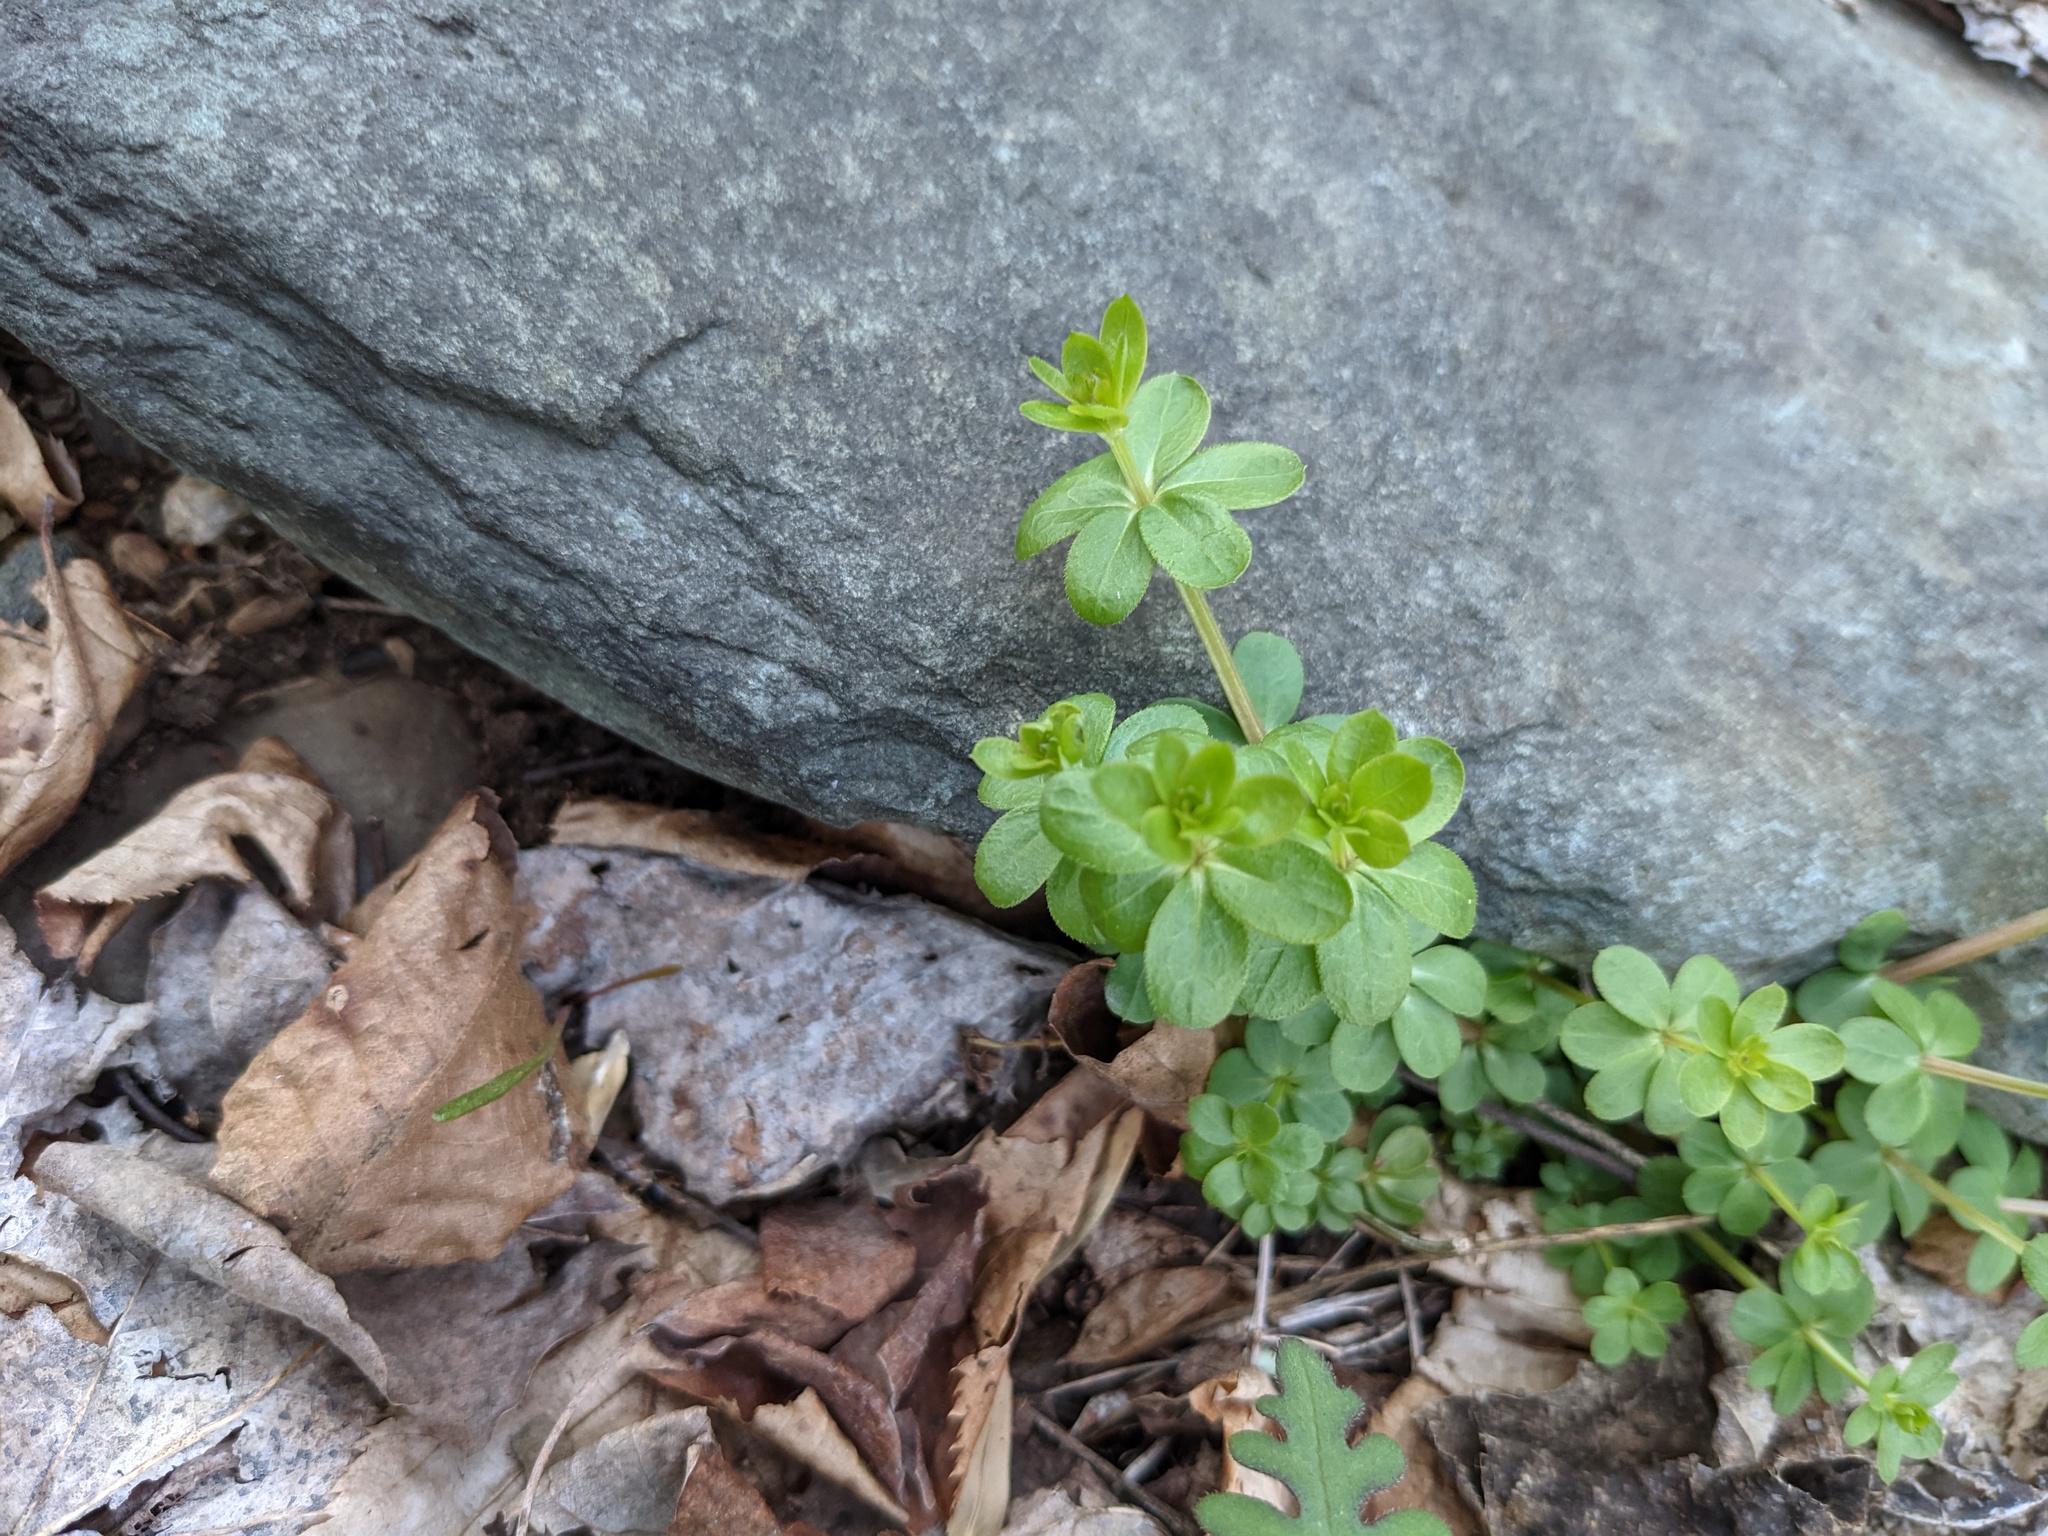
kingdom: Plantae
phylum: Tracheophyta
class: Magnoliopsida
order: Gentianales
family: Rubiaceae
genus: Galium
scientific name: Galium triflorum
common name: Fragrant bedstraw
